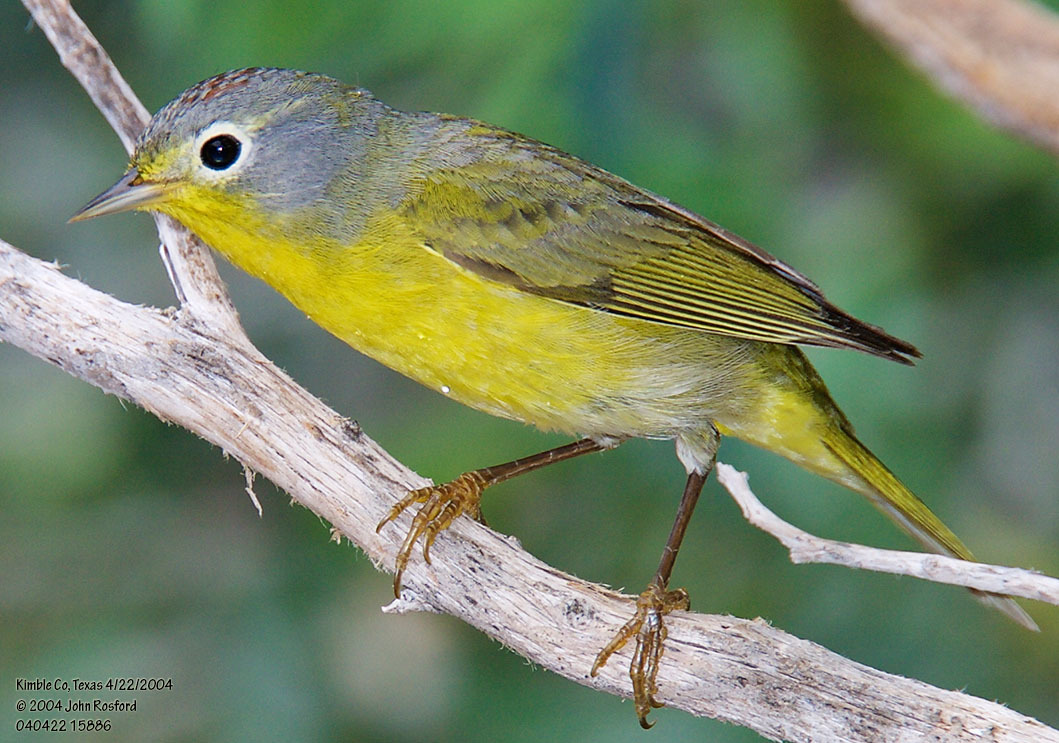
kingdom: Animalia
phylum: Chordata
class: Aves
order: Passeriformes
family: Parulidae
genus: Leiothlypis
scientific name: Leiothlypis ruficapilla
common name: Nashville warbler
